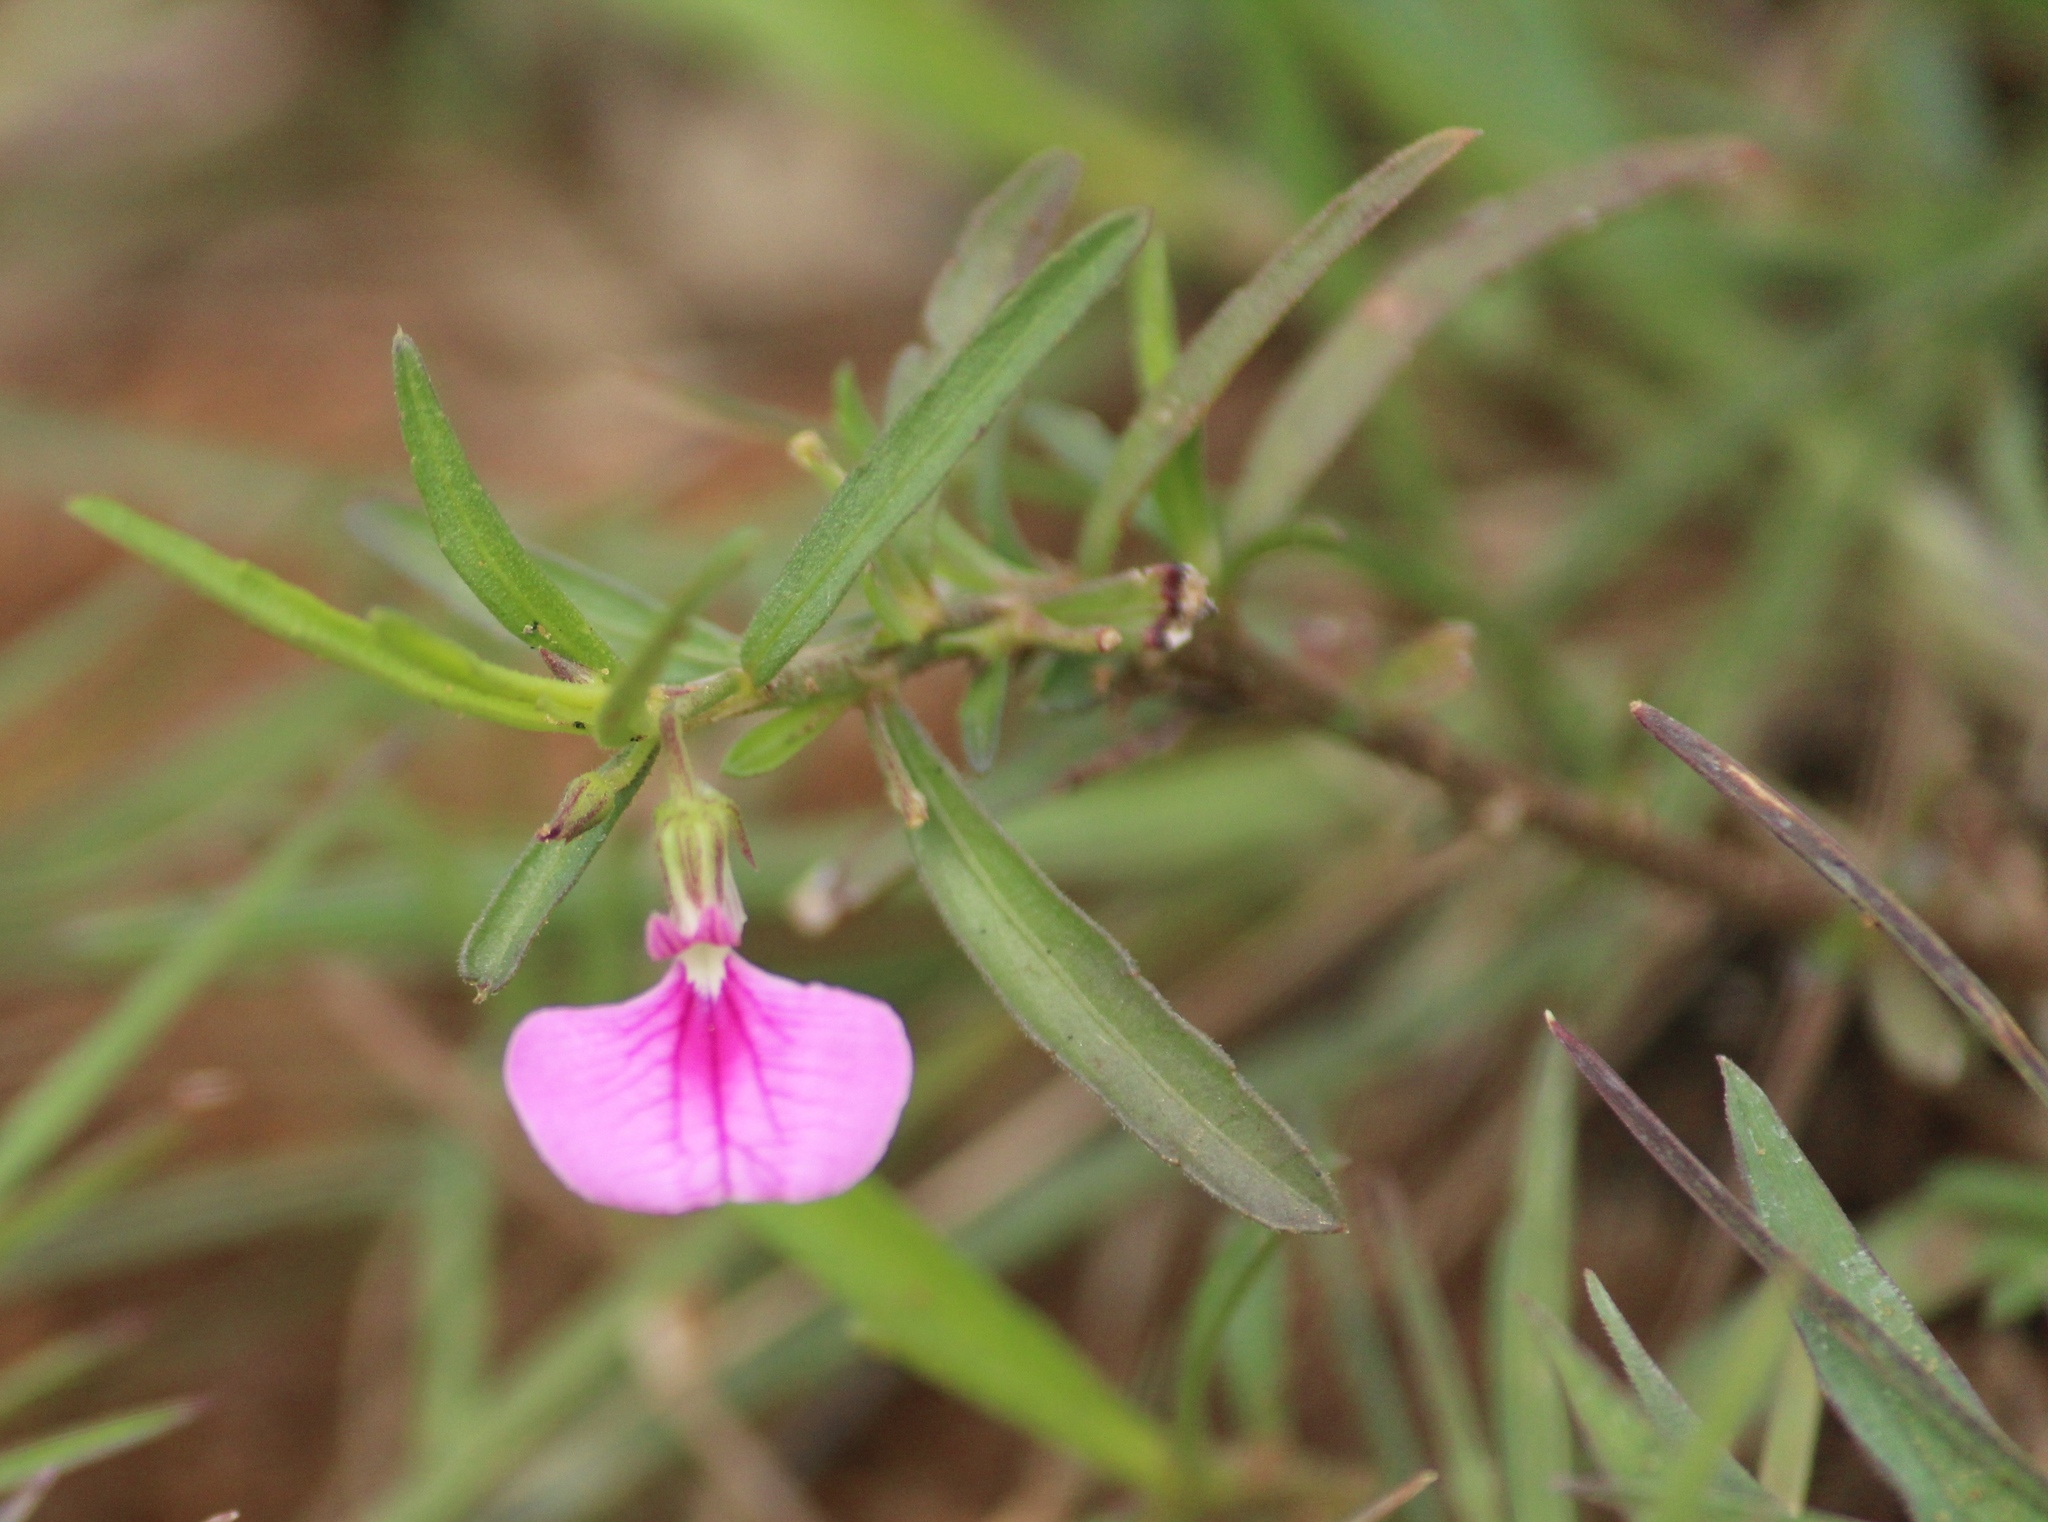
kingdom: Plantae
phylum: Tracheophyta
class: Magnoliopsida
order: Malpighiales
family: Violaceae
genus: Pigea
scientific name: Pigea enneasperma
